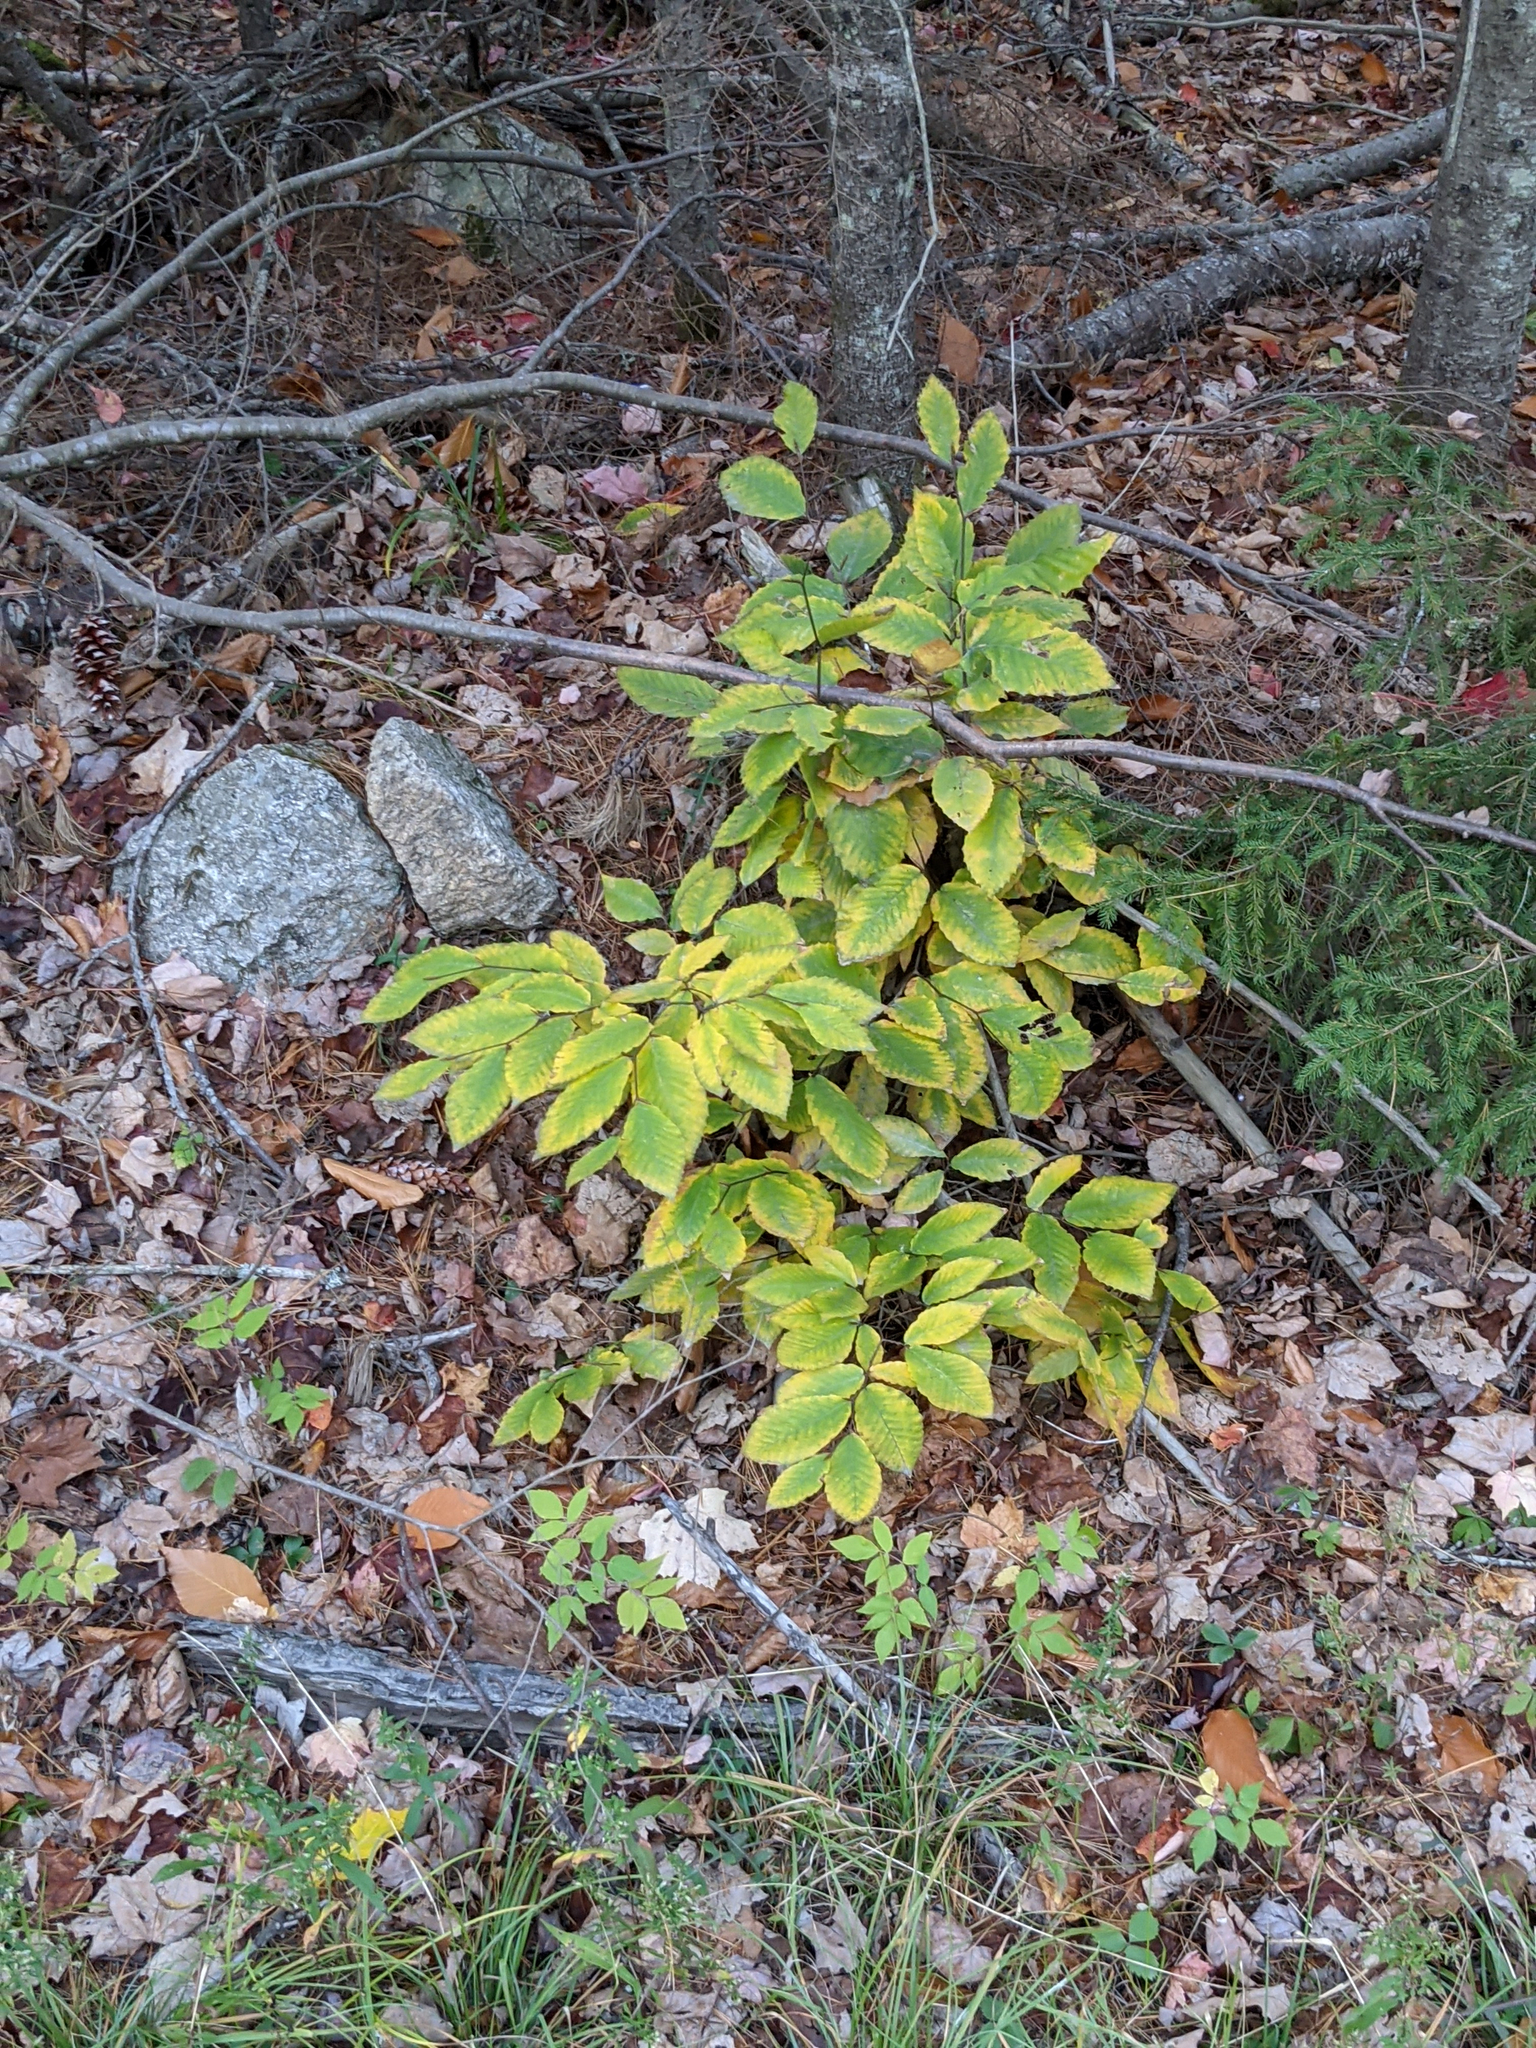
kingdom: Plantae
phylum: Tracheophyta
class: Magnoliopsida
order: Fagales
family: Fagaceae
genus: Fagus
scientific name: Fagus grandifolia
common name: American beech
